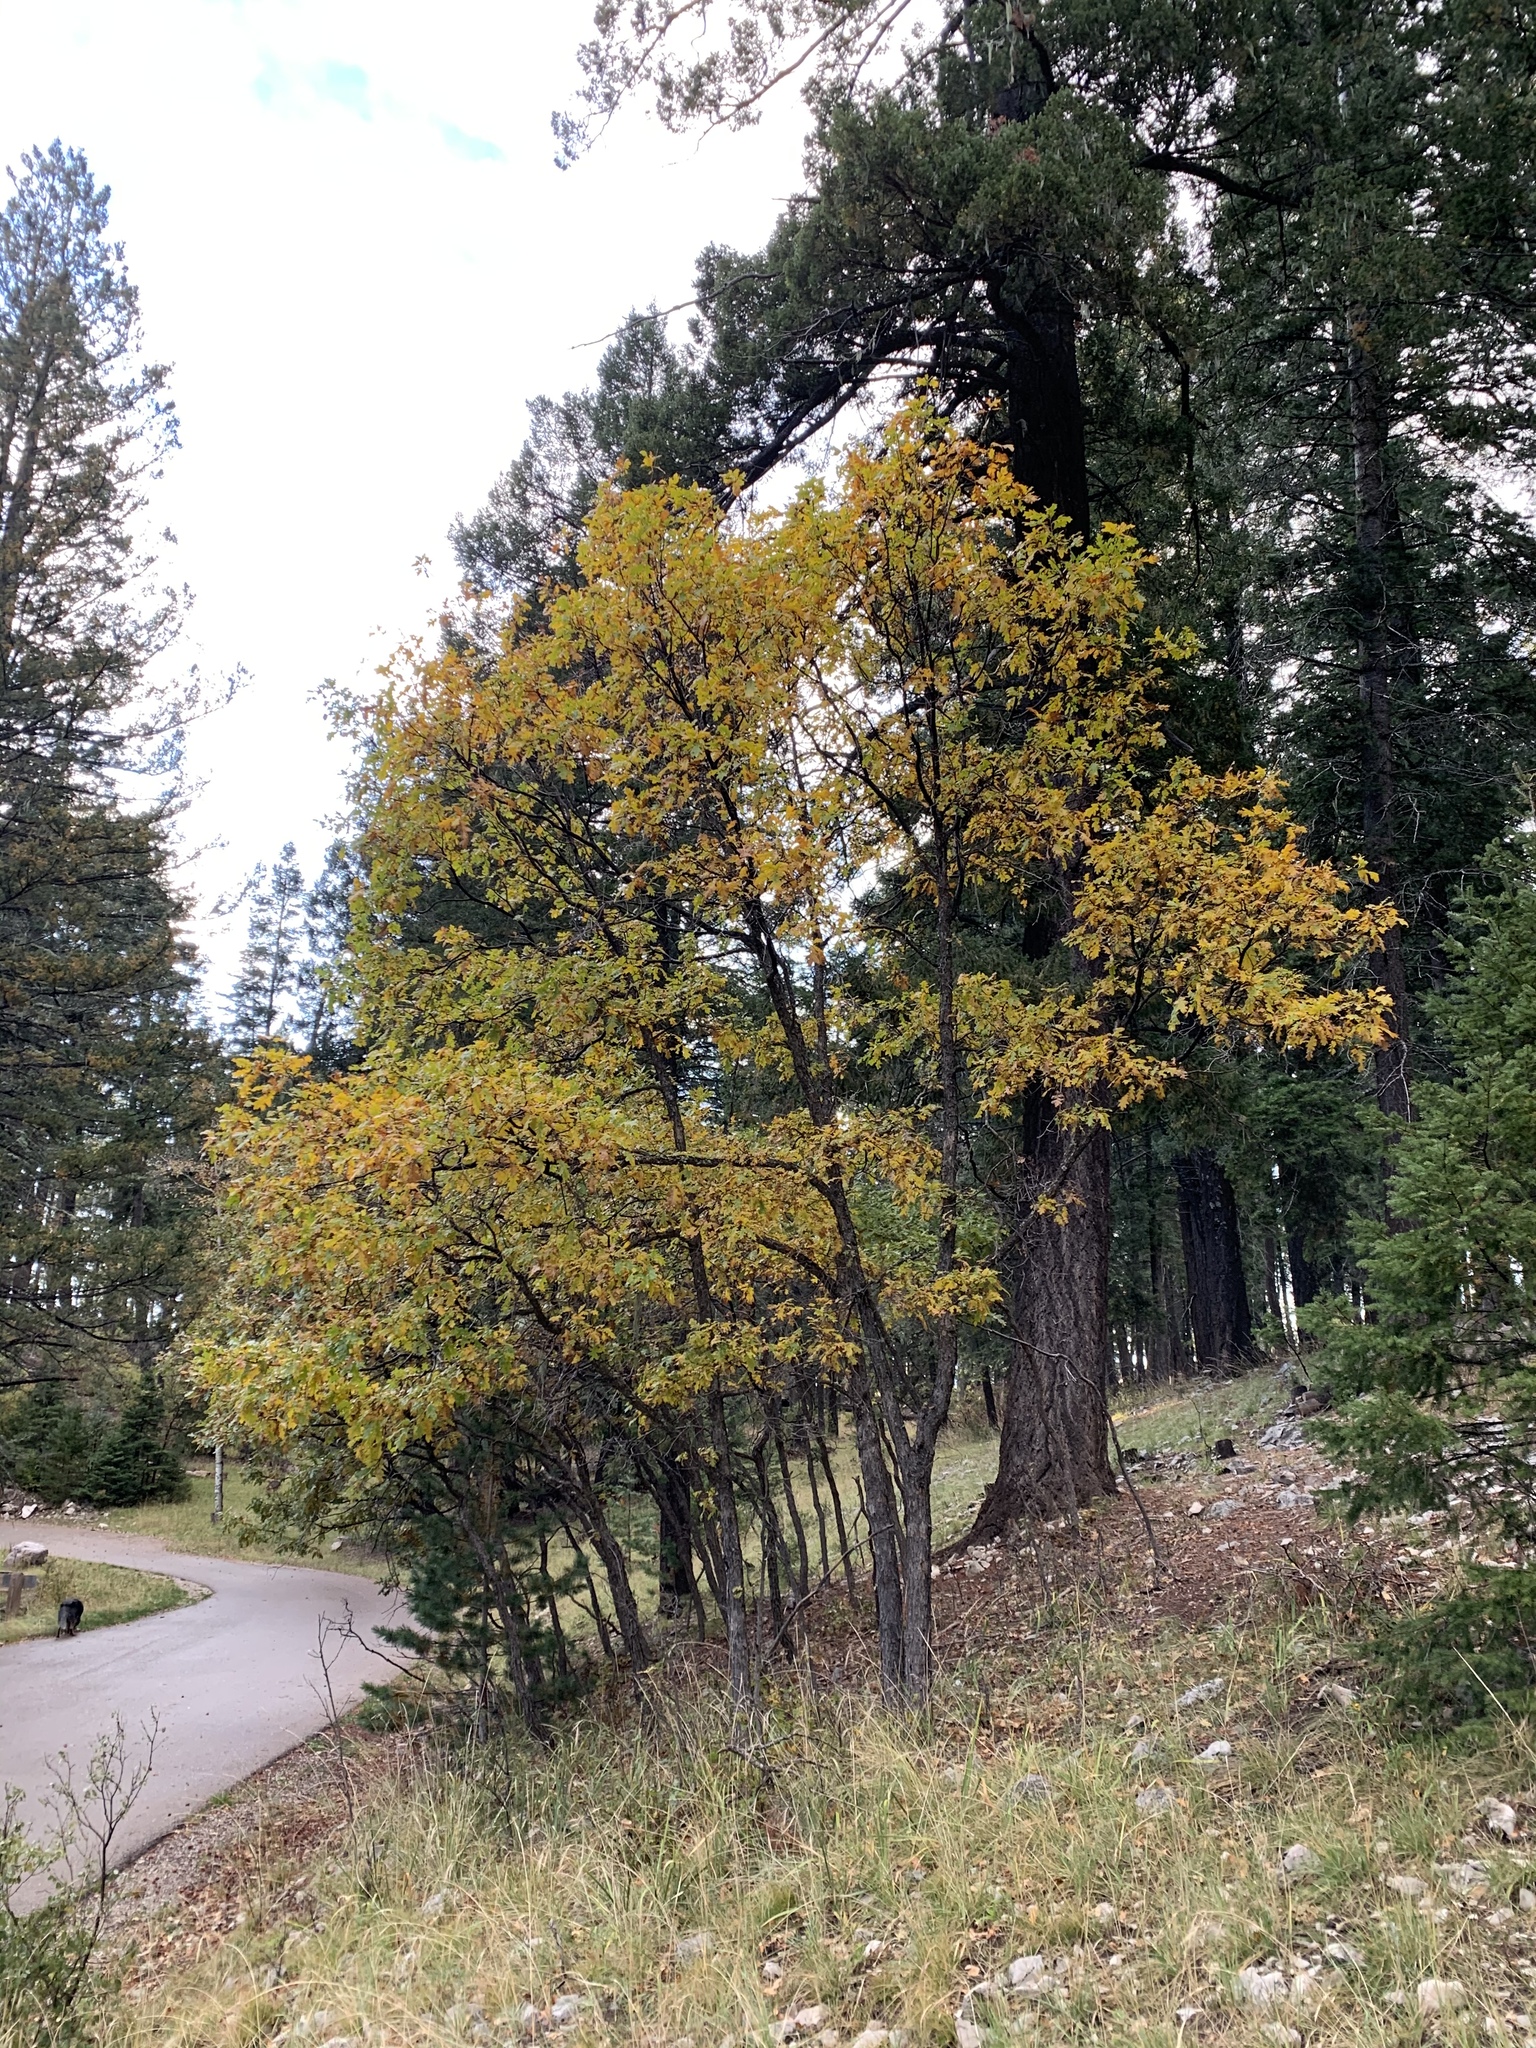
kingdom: Plantae
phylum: Tracheophyta
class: Magnoliopsida
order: Fagales
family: Fagaceae
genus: Quercus
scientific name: Quercus gambelii
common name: Gambel oak
